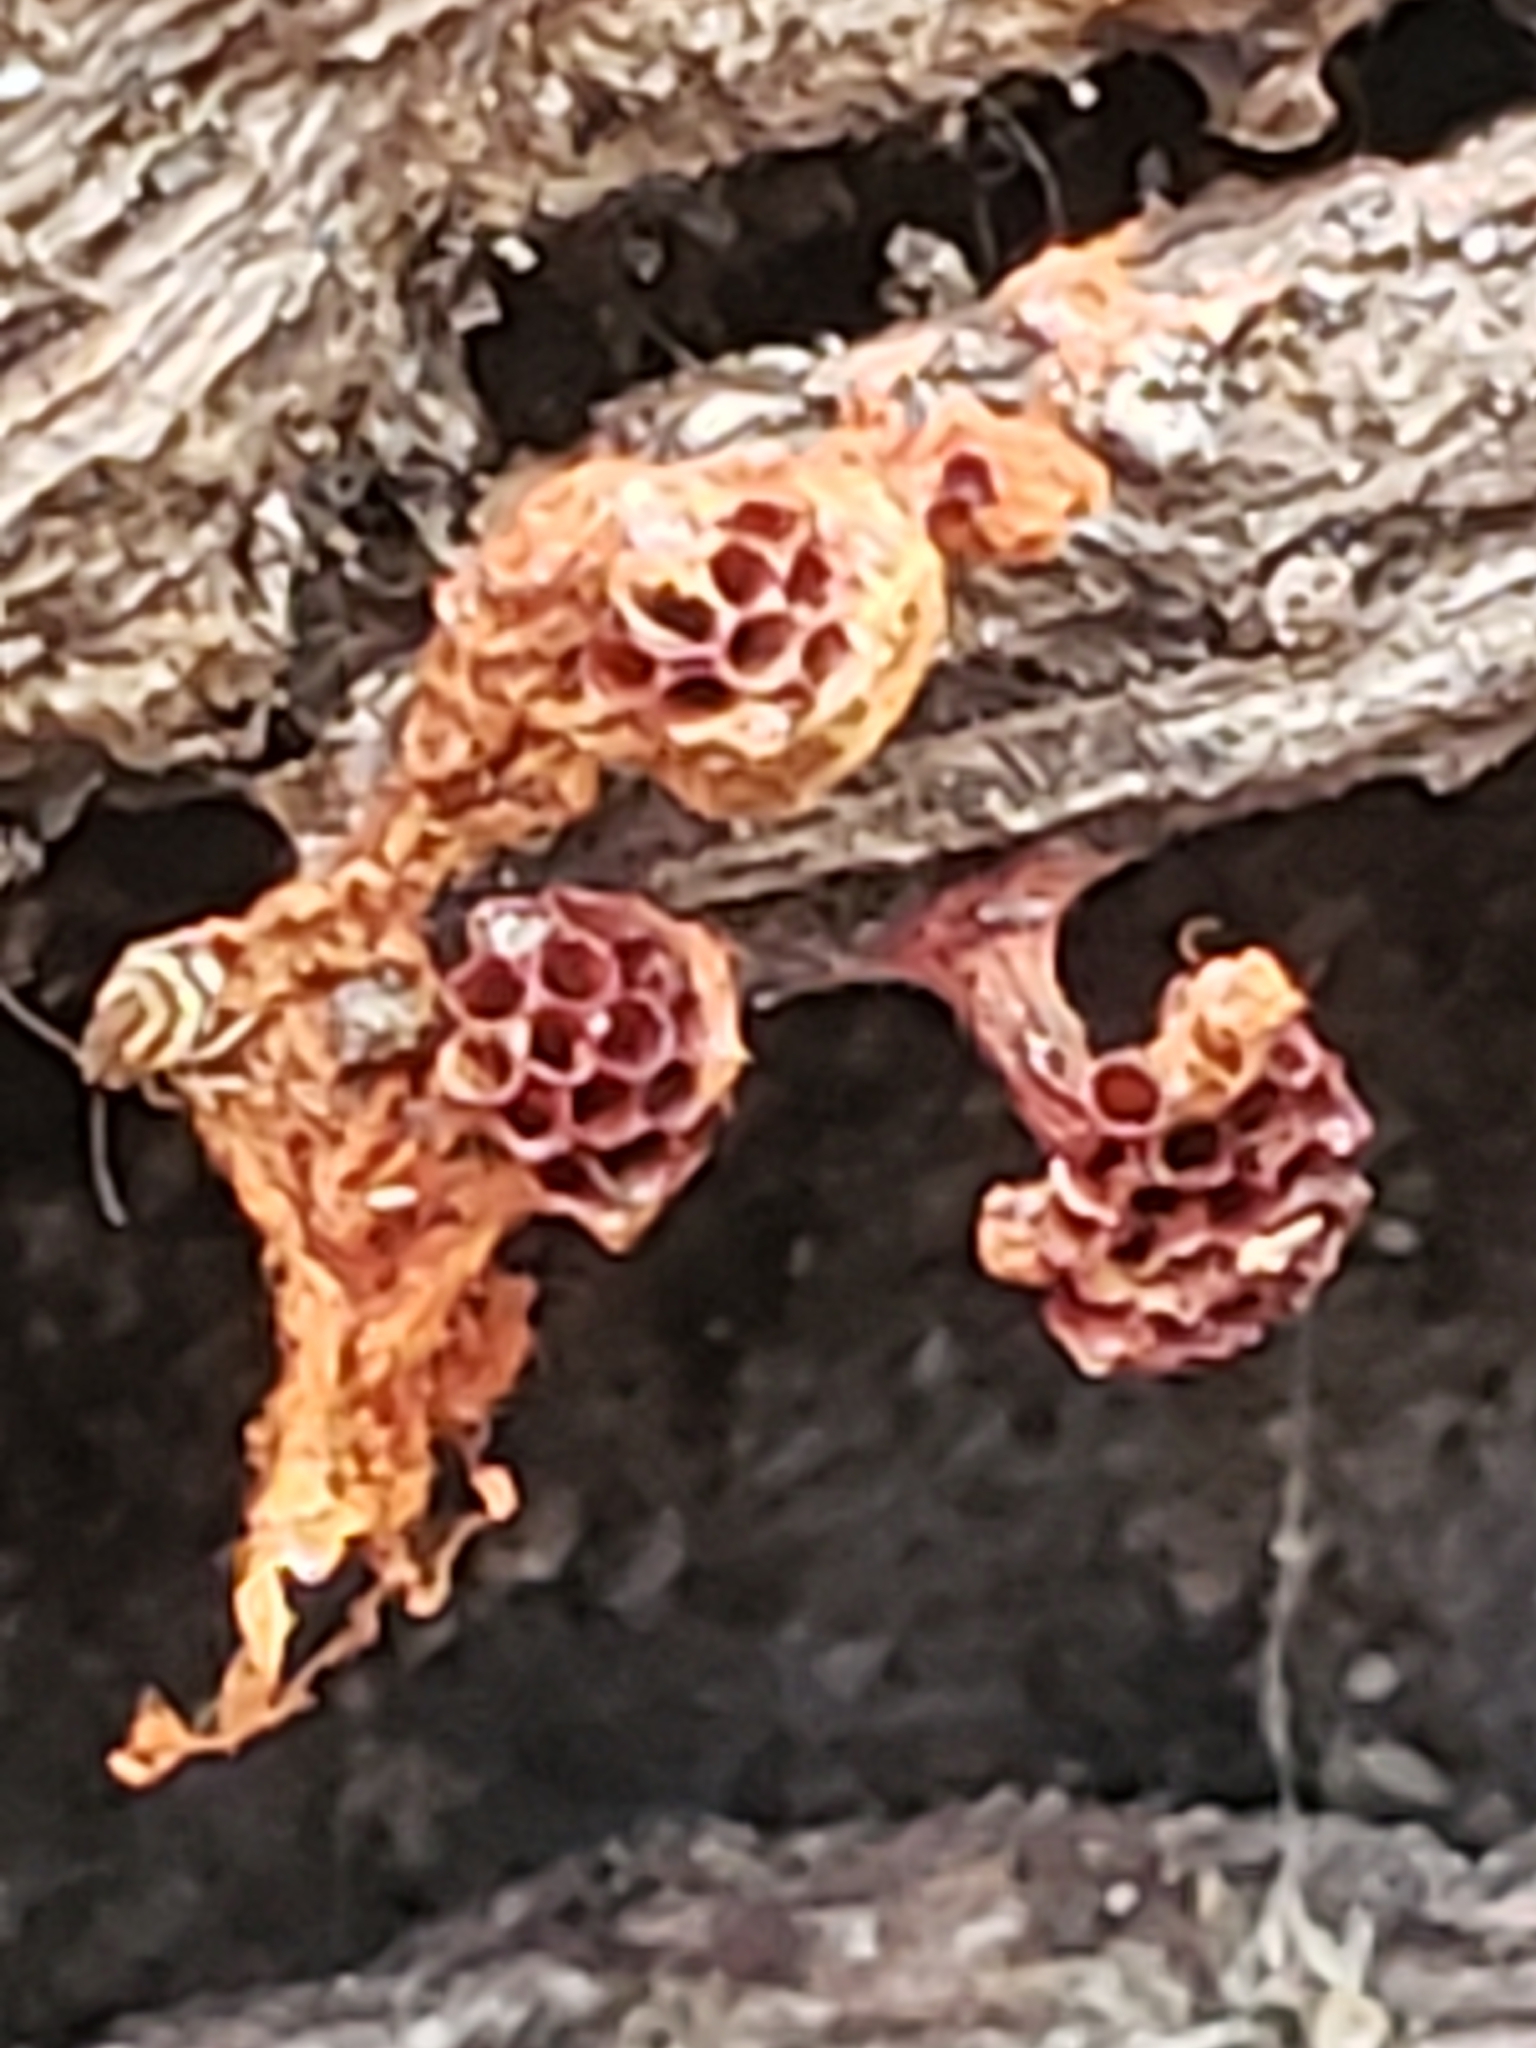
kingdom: Protozoa
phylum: Mycetozoa
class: Myxomycetes
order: Trichiales
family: Trichiaceae
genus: Metatrichia
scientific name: Metatrichia vesparia
